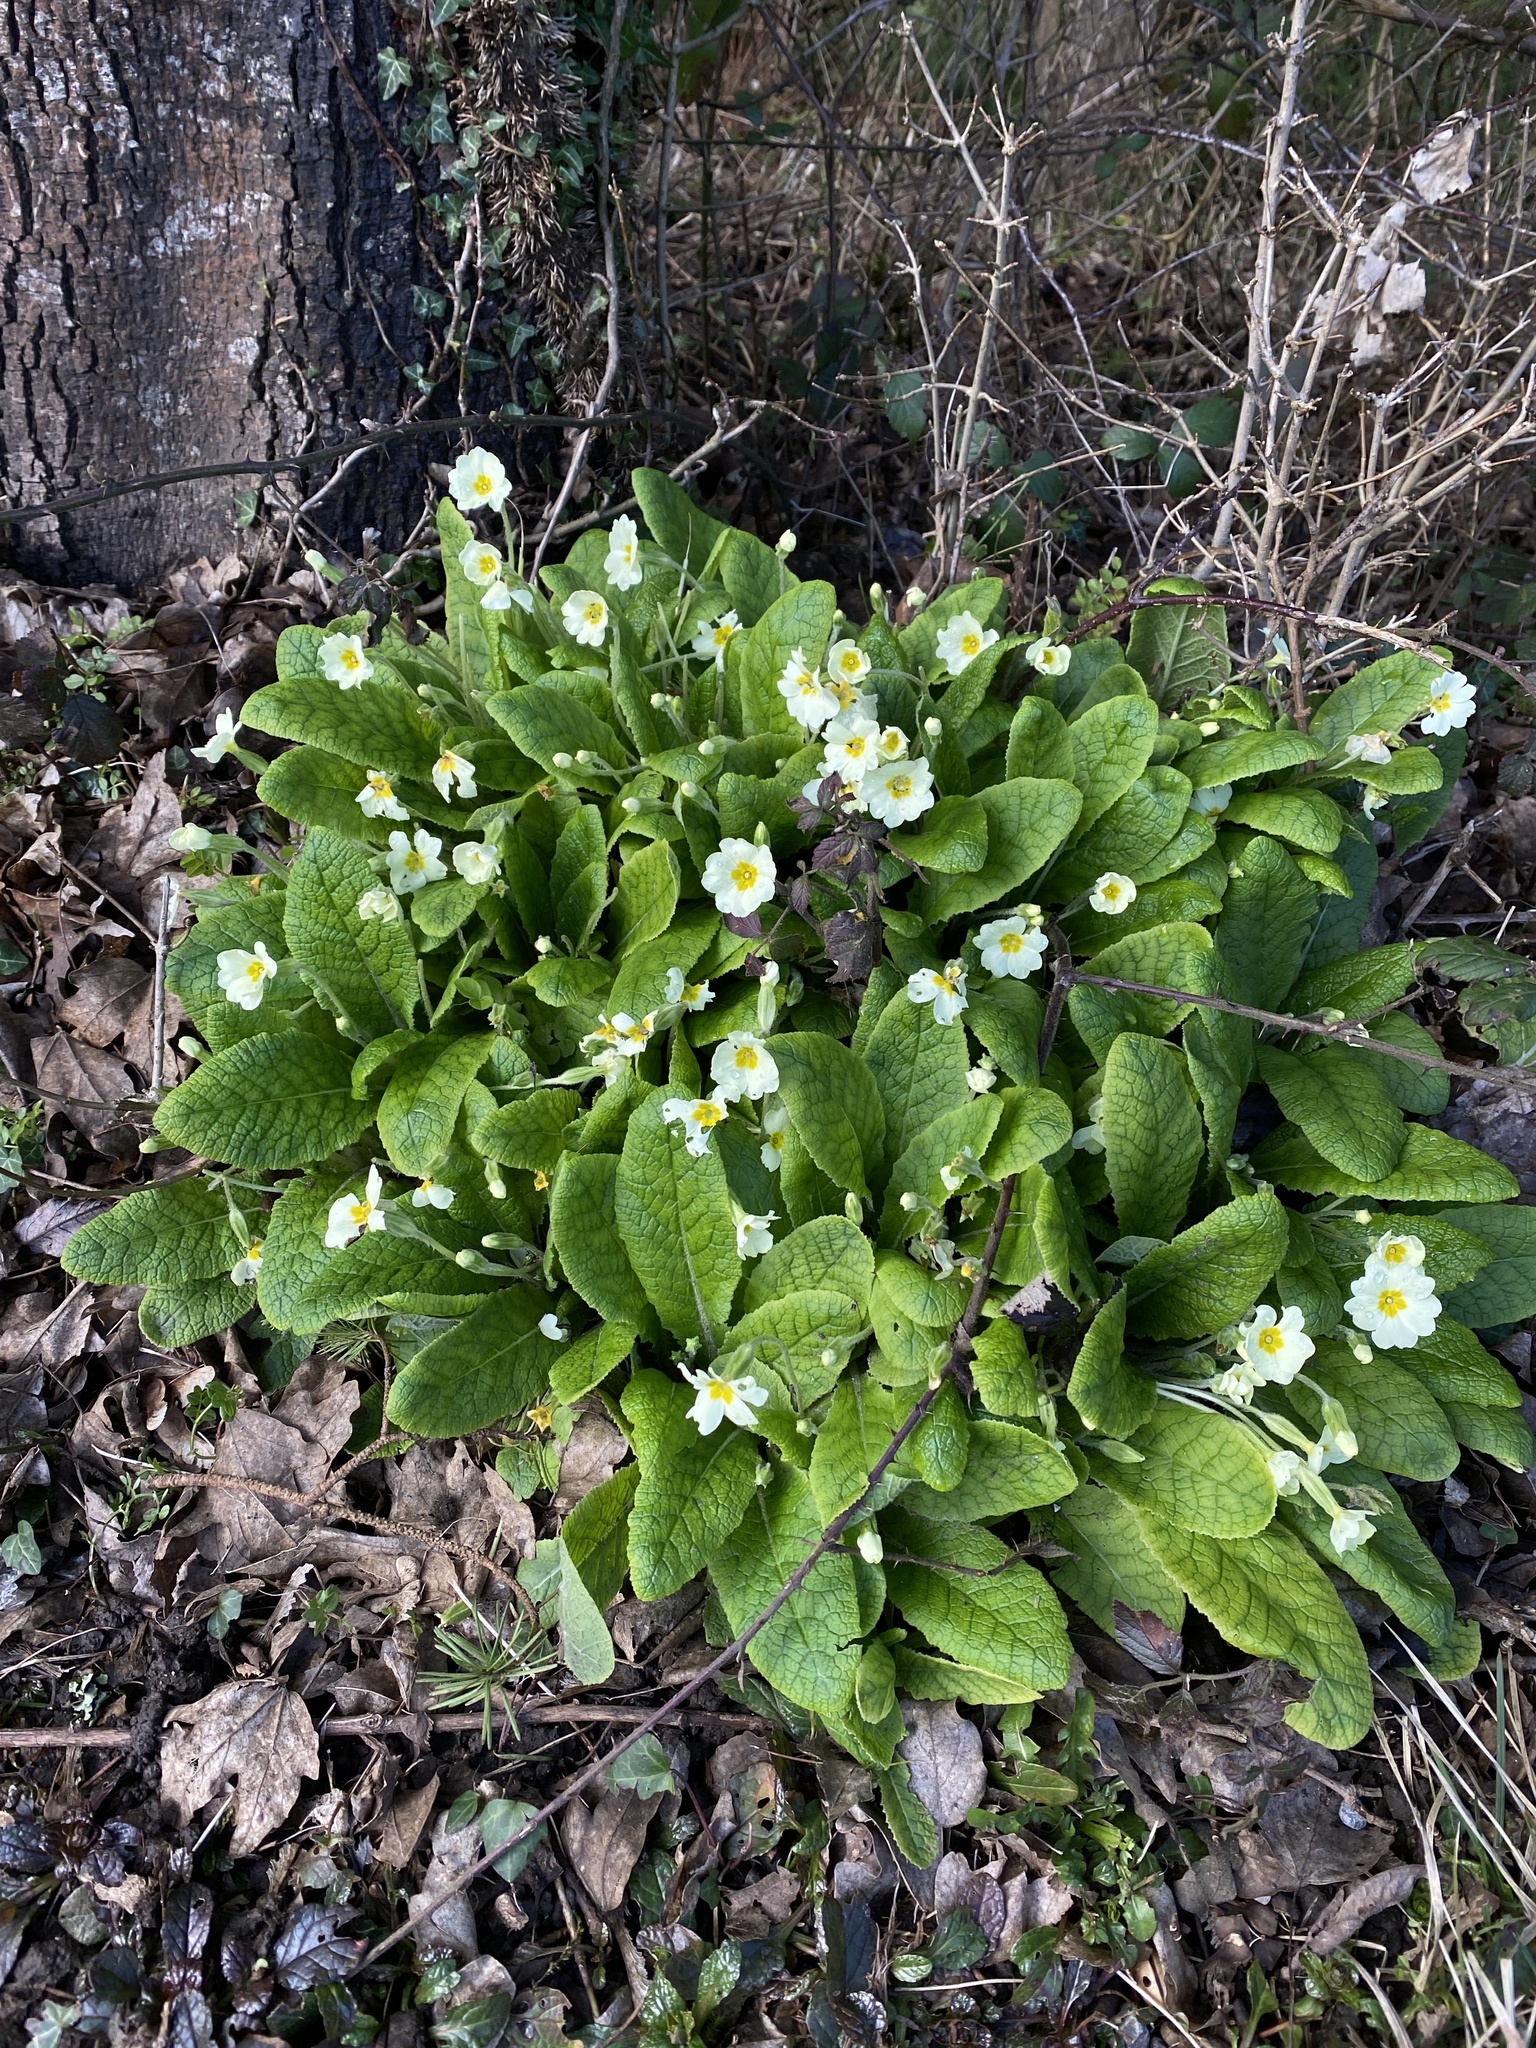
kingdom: Plantae
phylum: Tracheophyta
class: Magnoliopsida
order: Ericales
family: Primulaceae
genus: Primula
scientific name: Primula vulgaris
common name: Primrose
